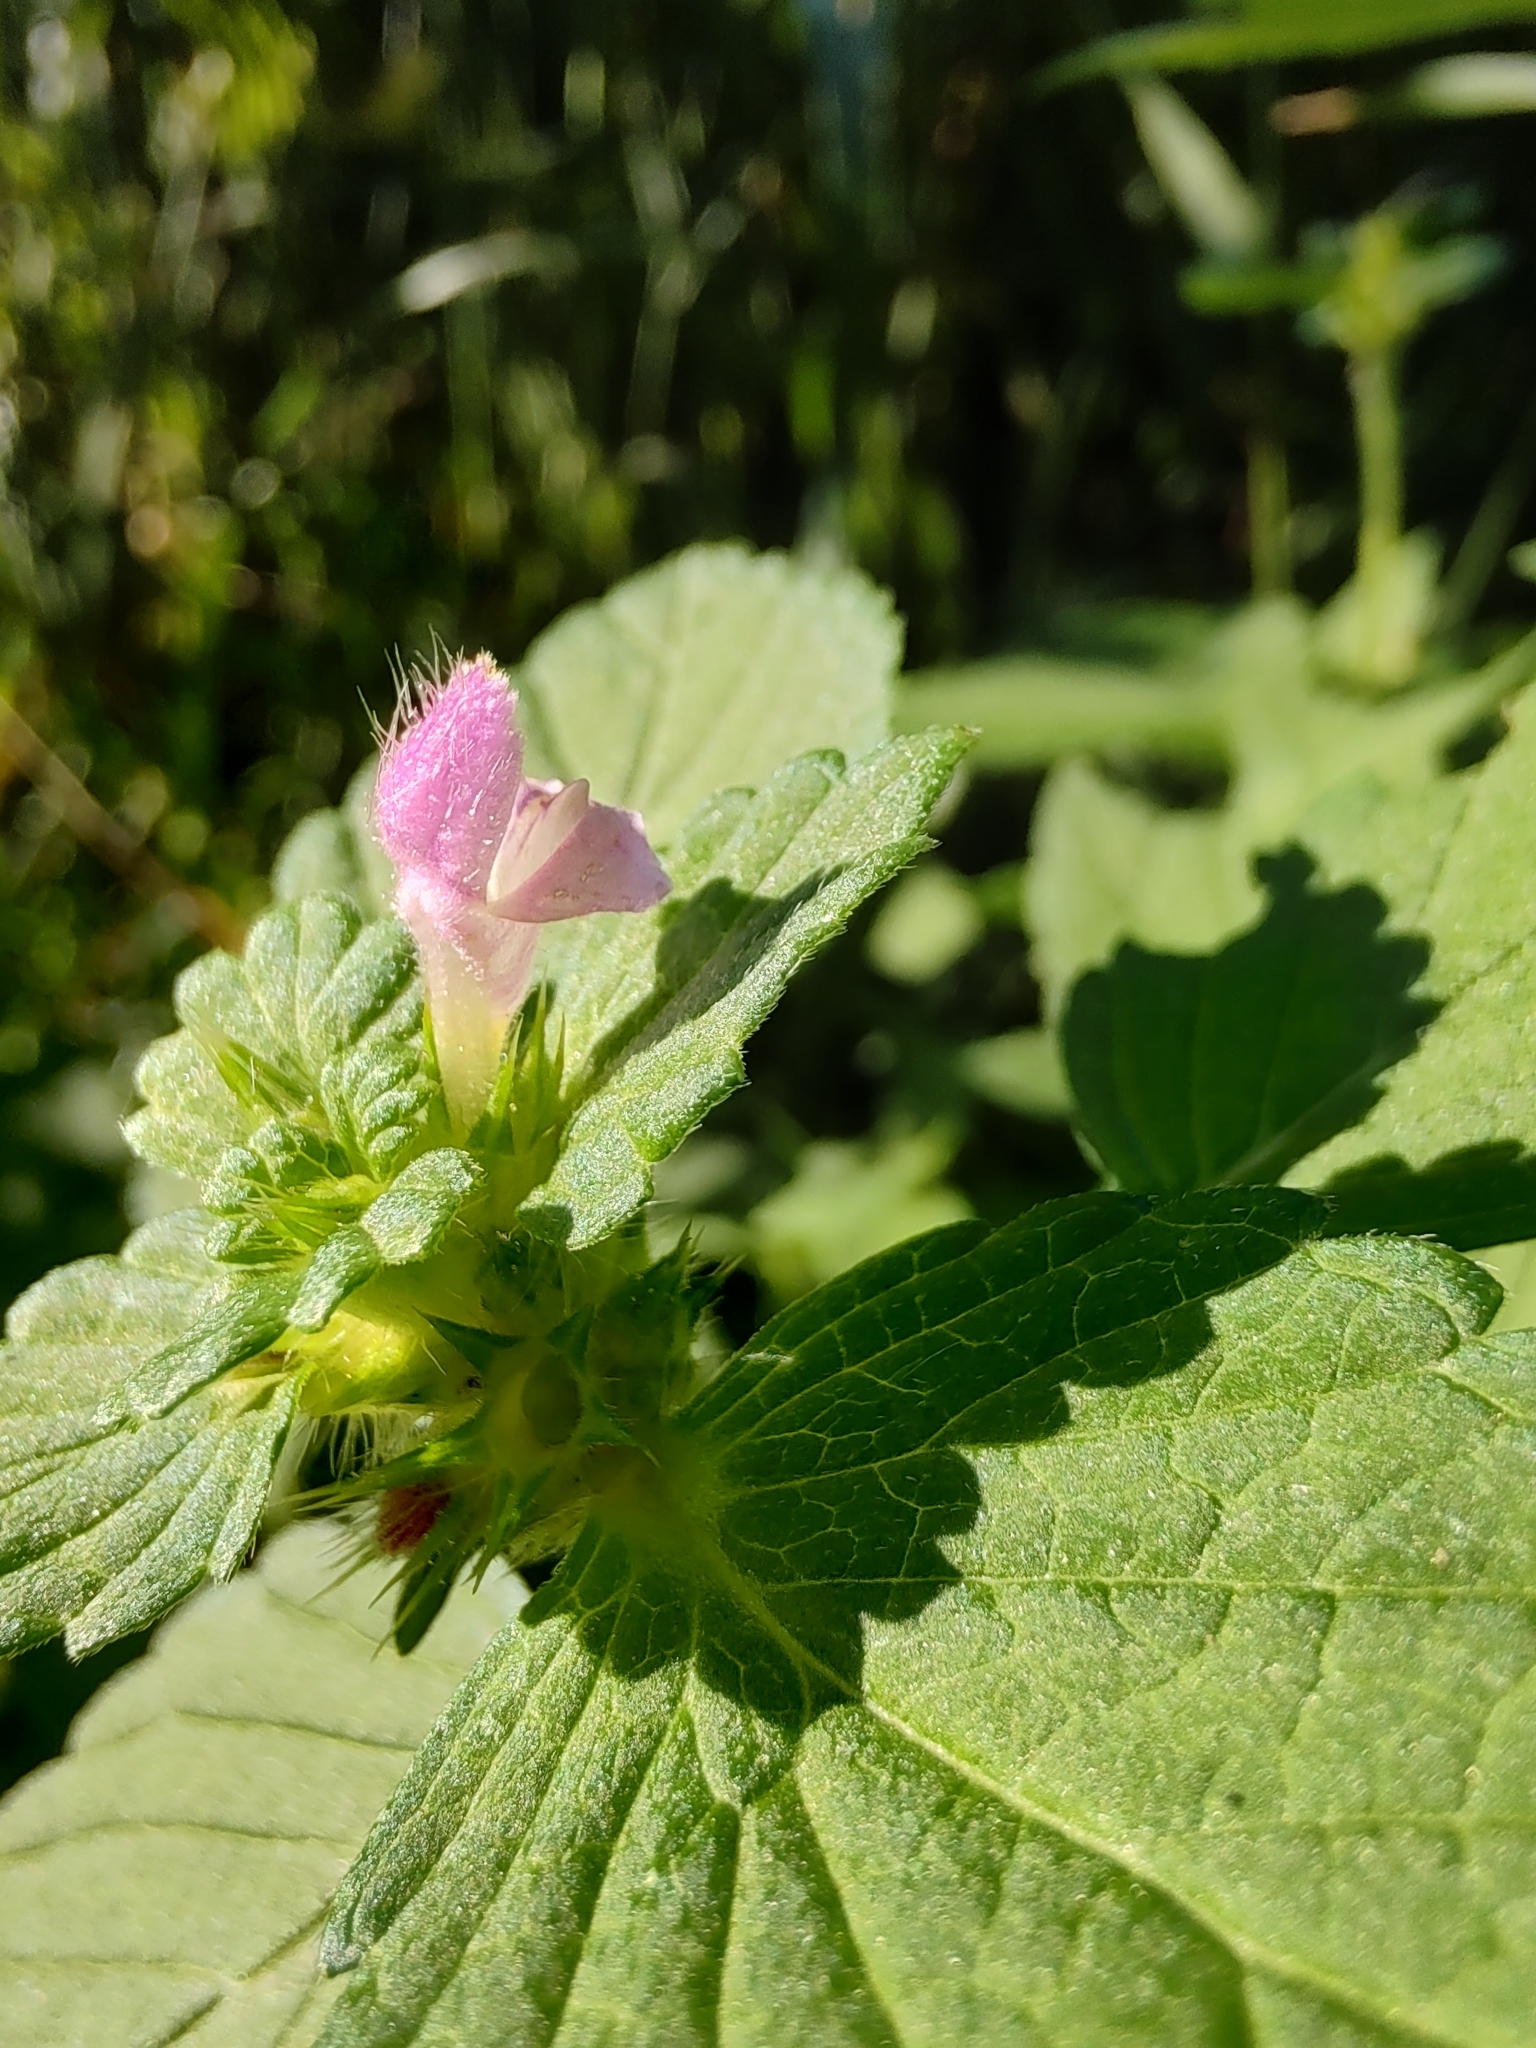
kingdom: Plantae
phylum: Tracheophyta
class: Magnoliopsida
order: Lamiales
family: Lamiaceae
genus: Galeopsis
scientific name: Galeopsis bifida
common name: Bifid hemp-nettle
